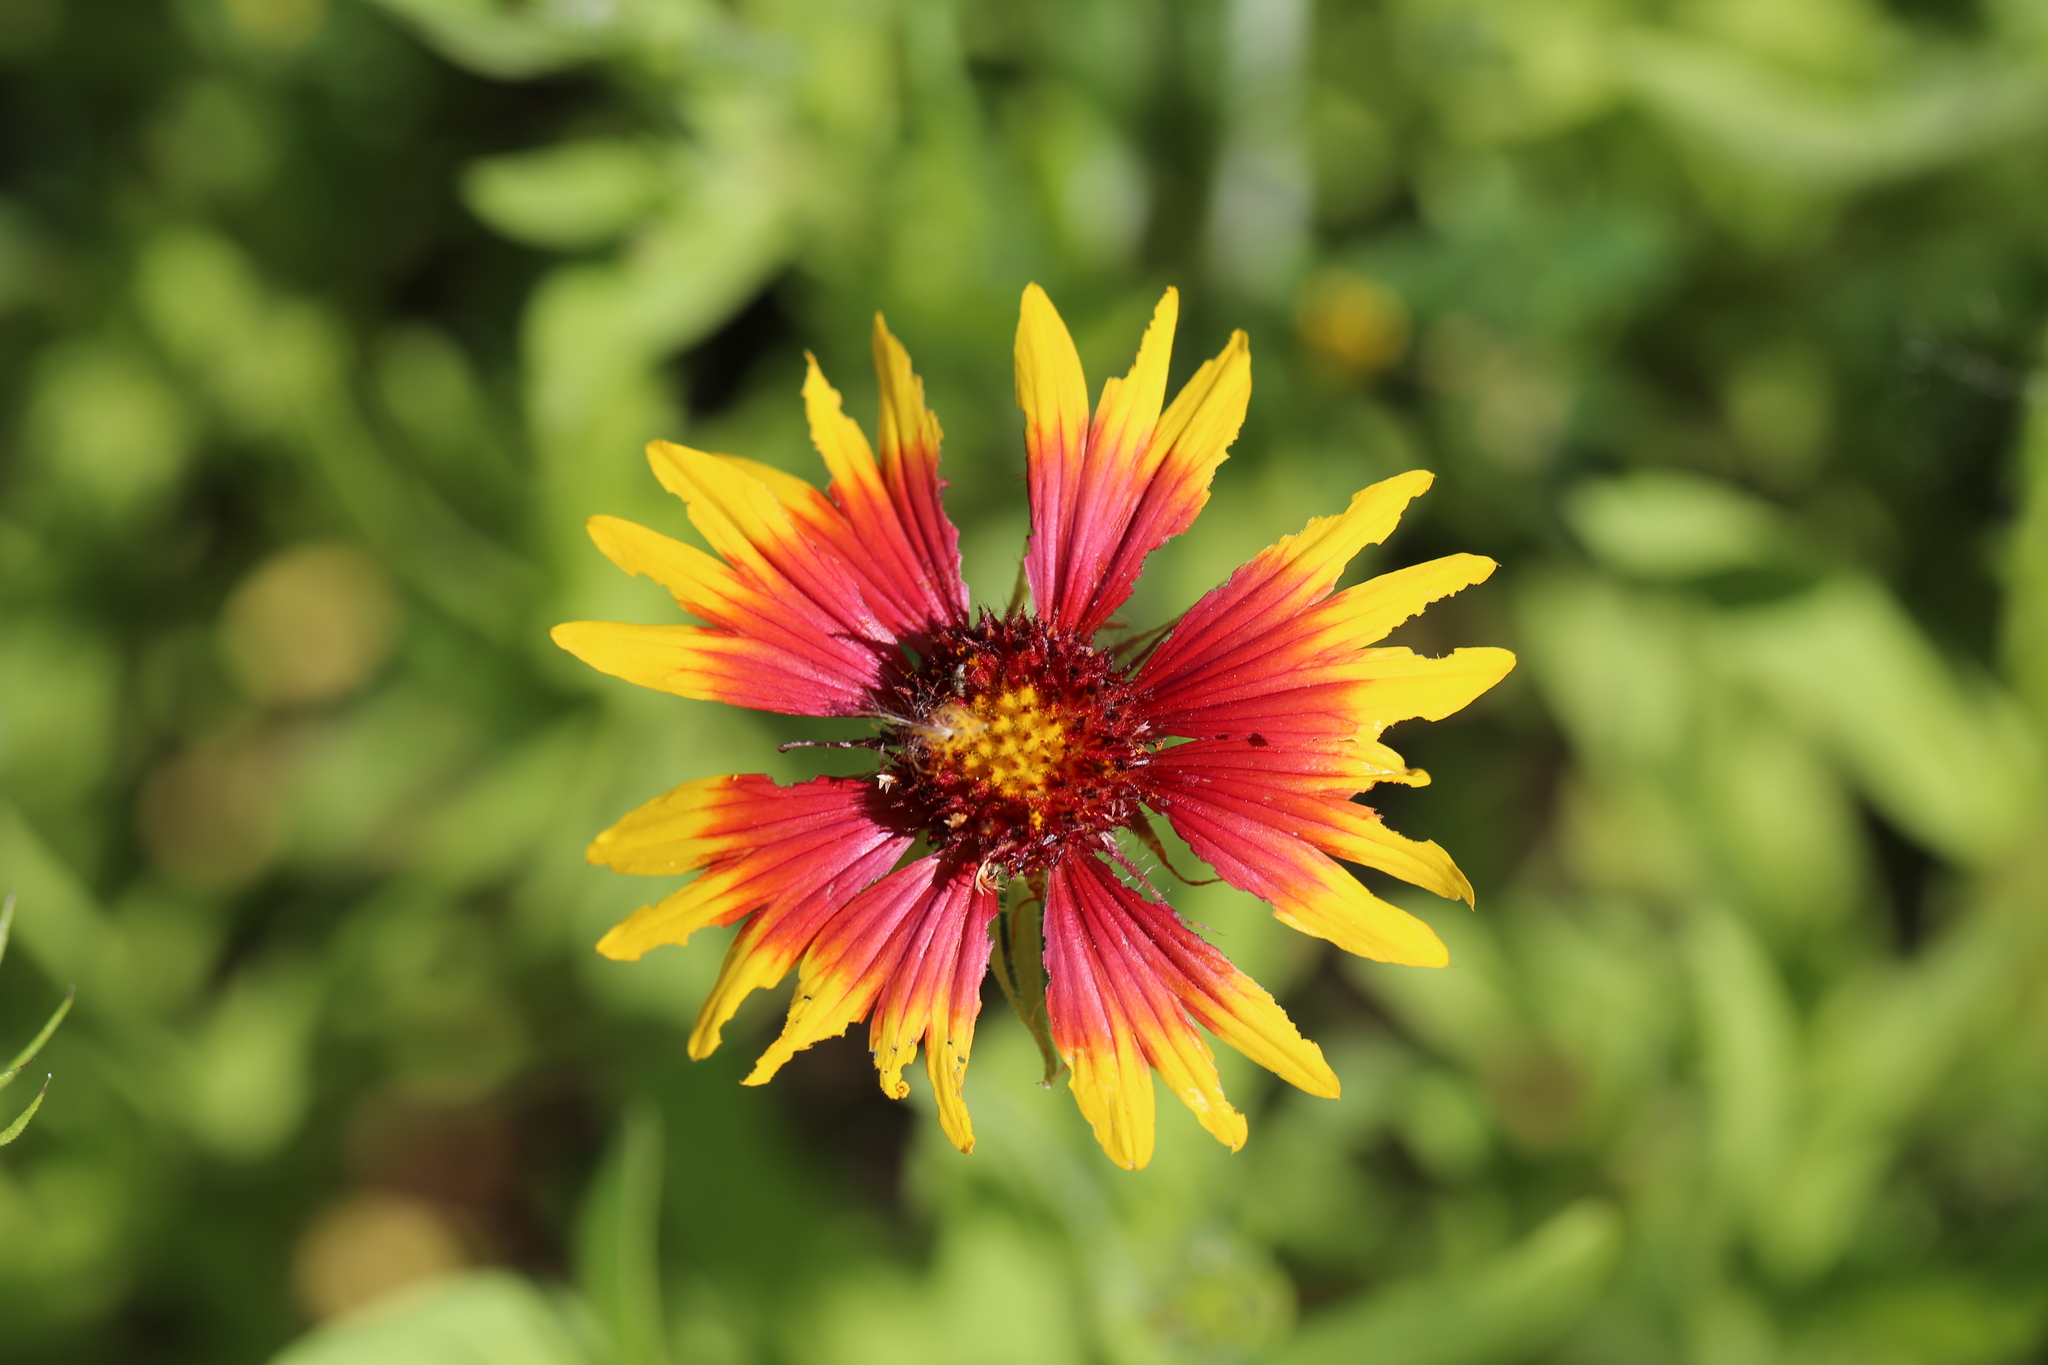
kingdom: Plantae
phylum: Tracheophyta
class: Magnoliopsida
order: Asterales
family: Asteraceae
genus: Gaillardia
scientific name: Gaillardia pulchella
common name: Firewheel
